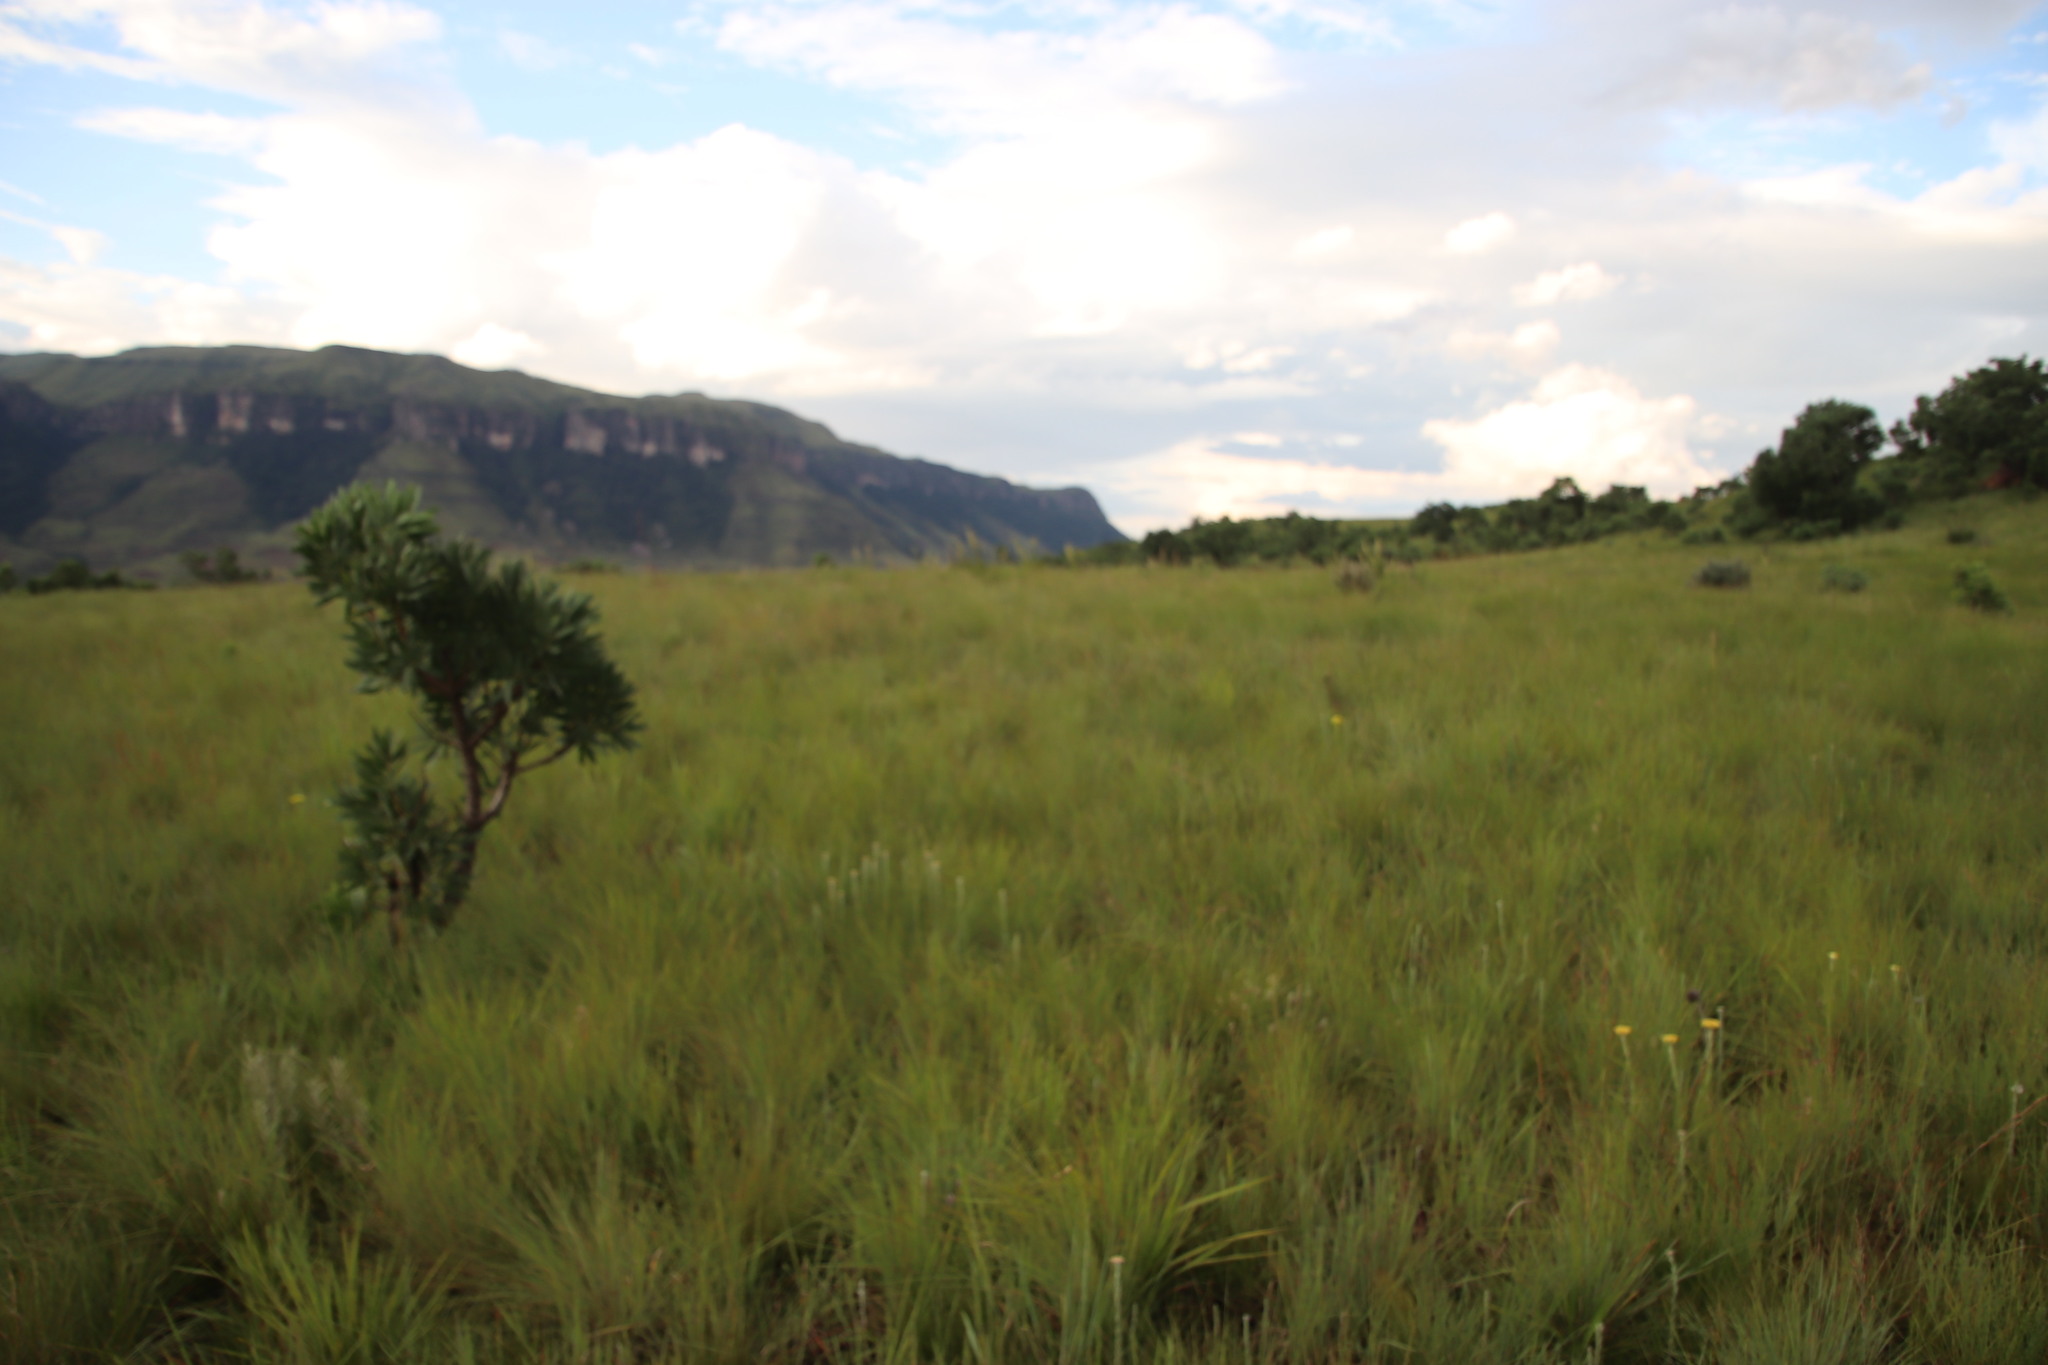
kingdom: Plantae
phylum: Tracheophyta
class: Magnoliopsida
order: Lamiales
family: Lamiaceae
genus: Coleus
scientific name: Coleus calycinus
